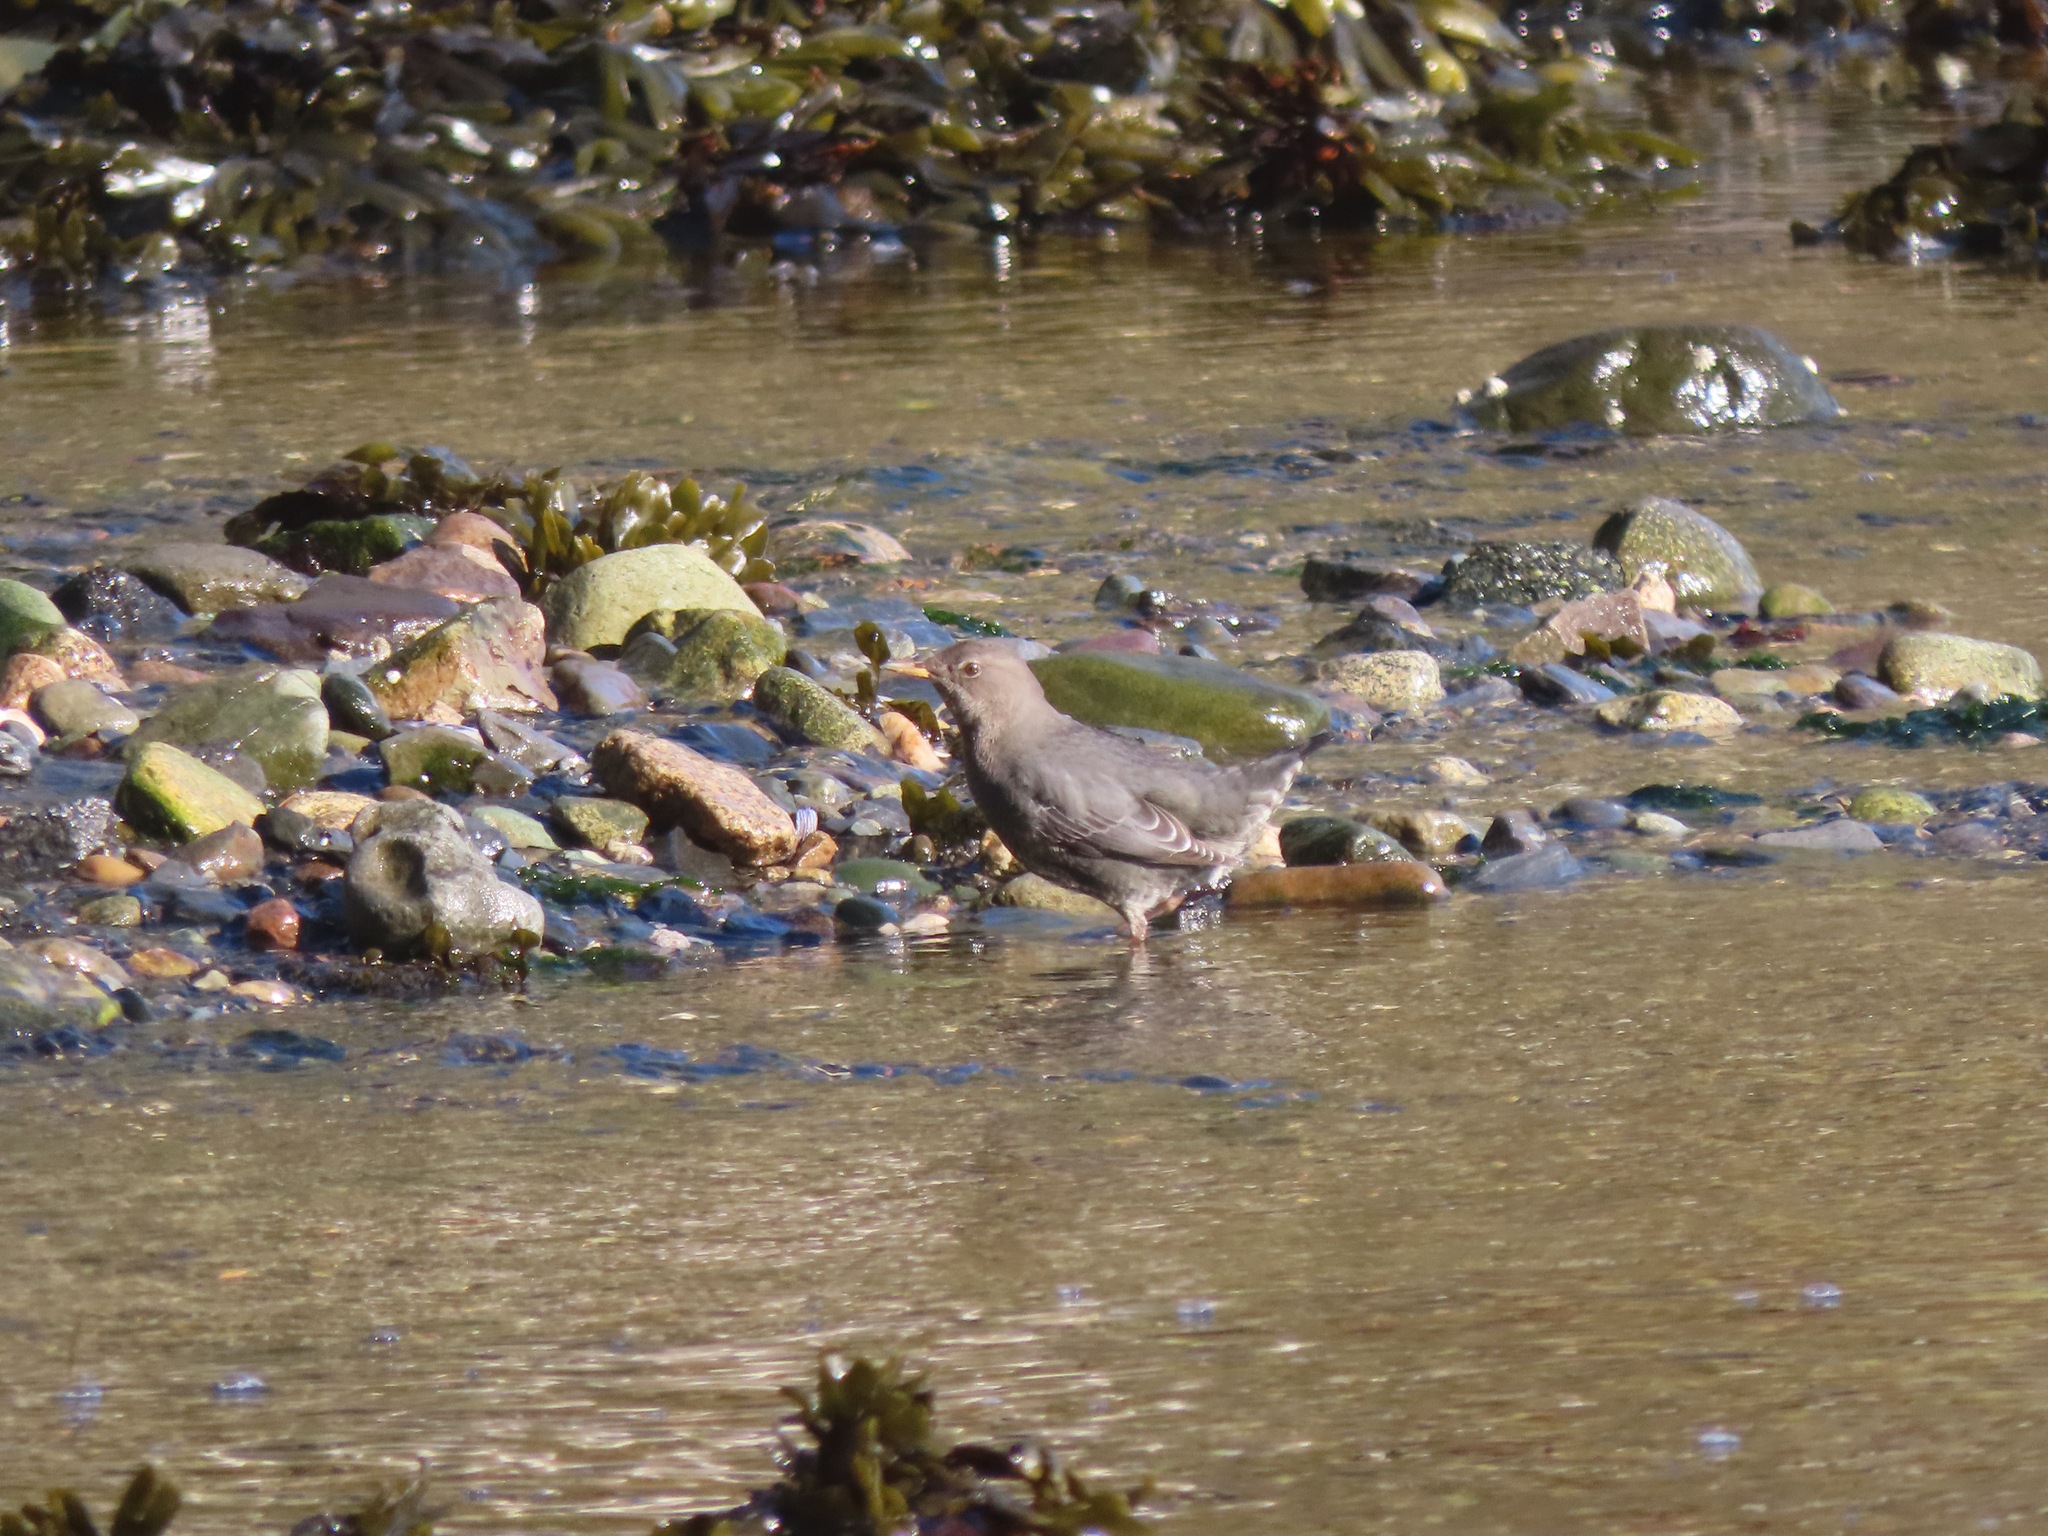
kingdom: Animalia
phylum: Chordata
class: Aves
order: Passeriformes
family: Cinclidae
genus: Cinclus
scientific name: Cinclus mexicanus
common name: American dipper
